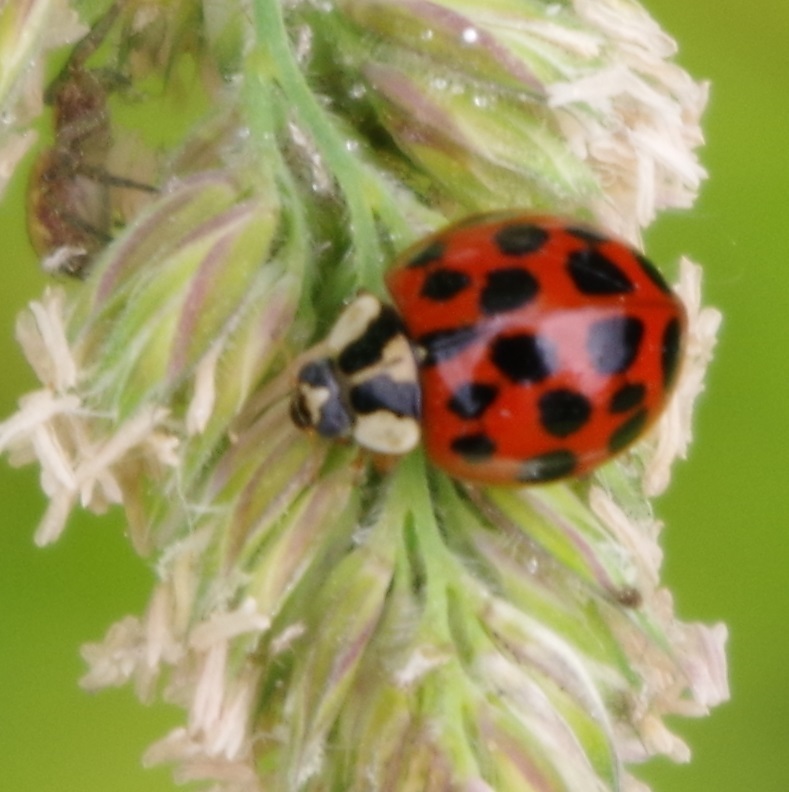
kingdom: Animalia
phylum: Arthropoda
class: Insecta
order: Coleoptera
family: Coccinellidae
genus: Harmonia
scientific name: Harmonia axyridis
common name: Harlequin ladybird
